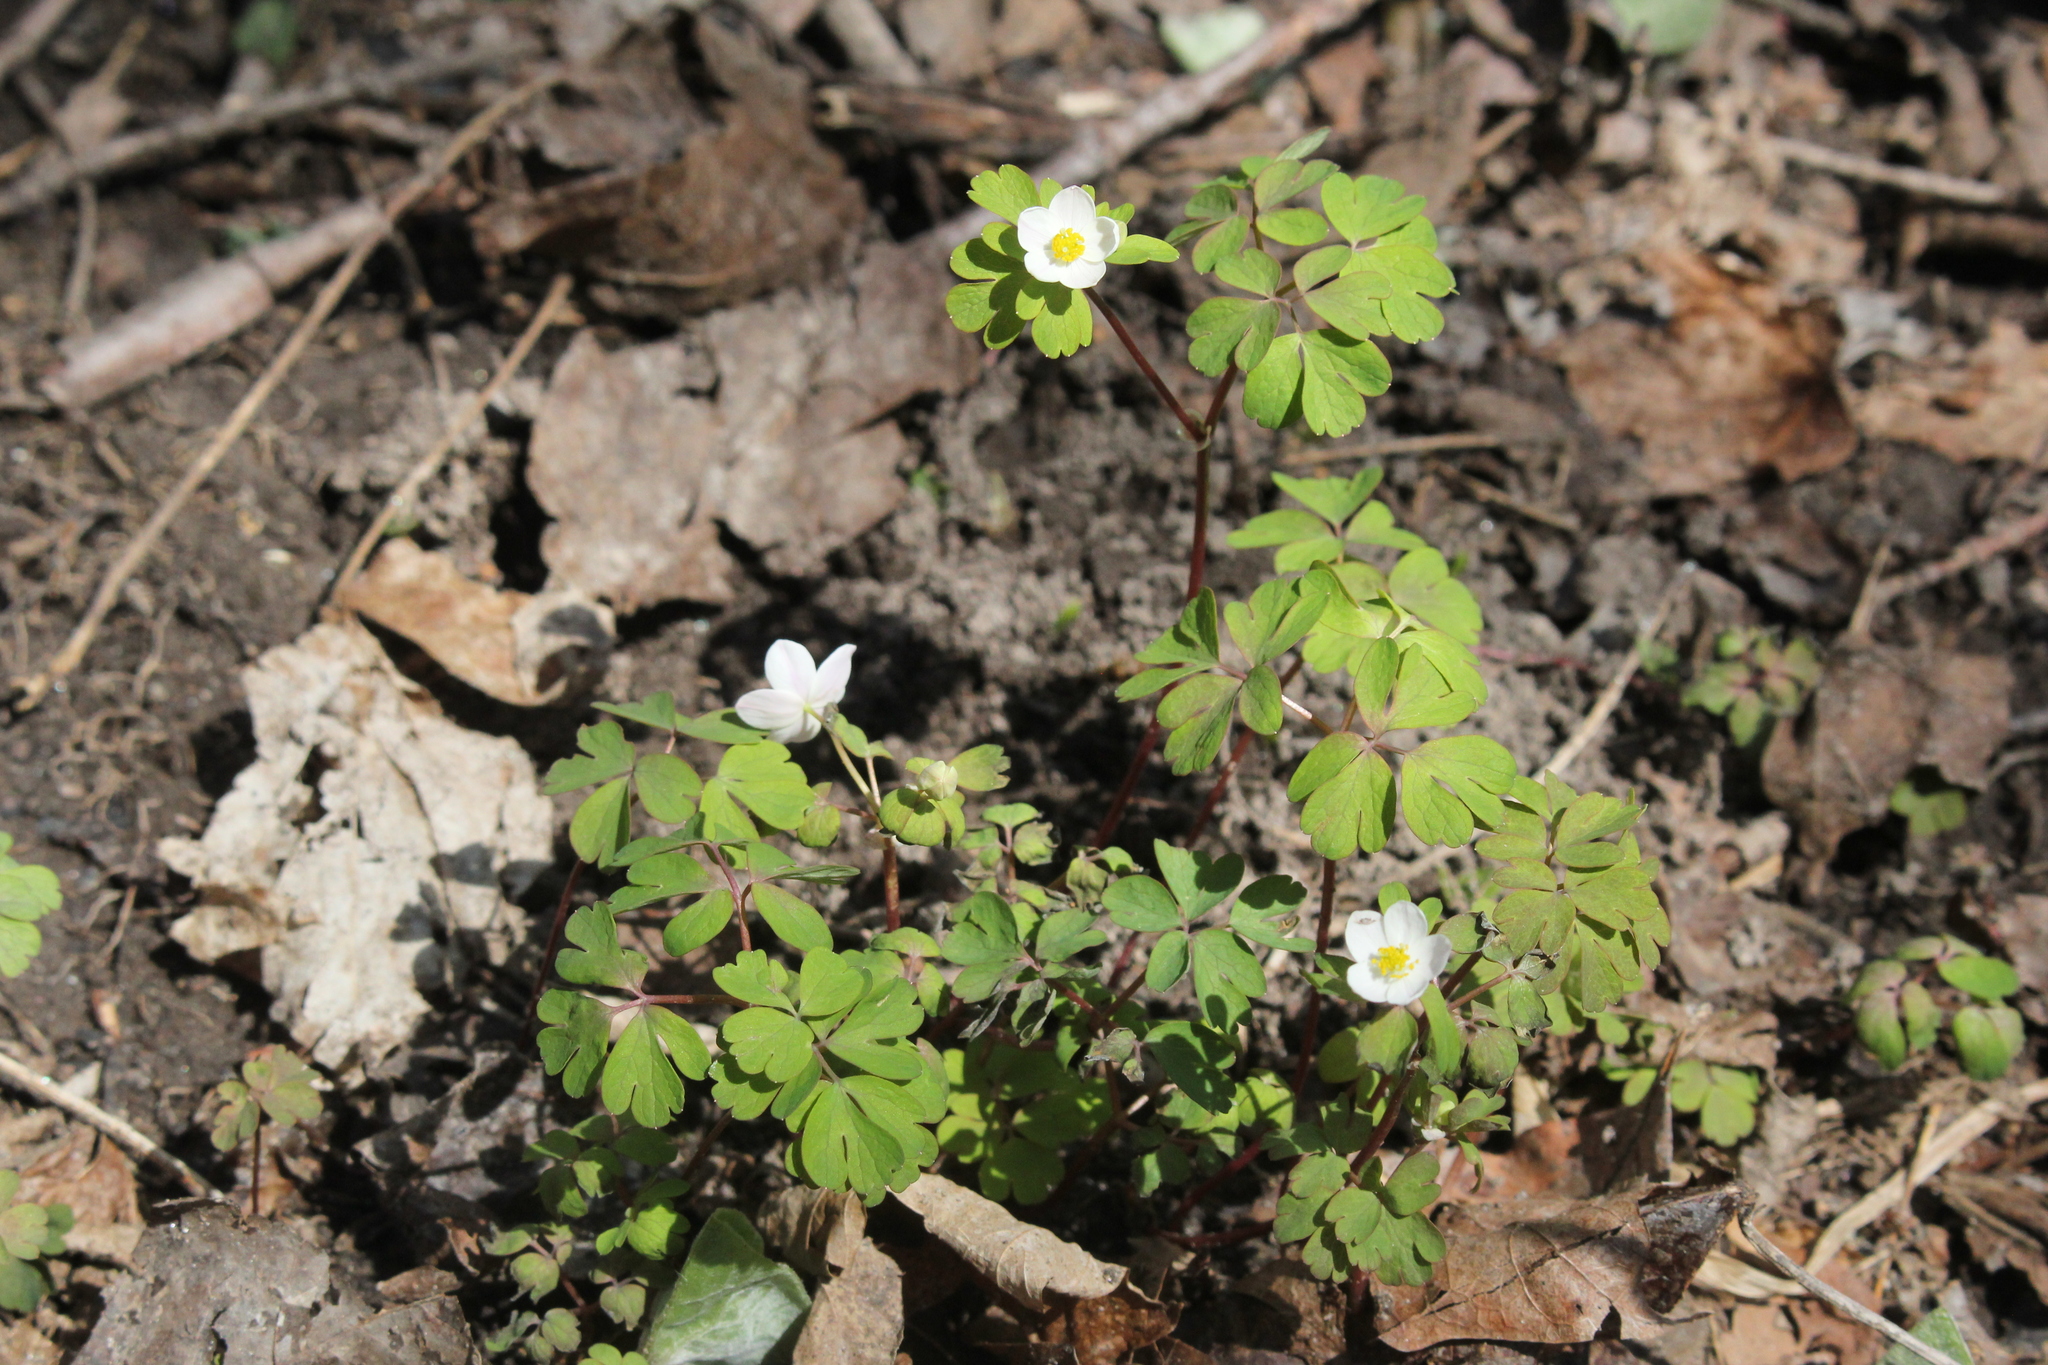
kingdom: Plantae
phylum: Tracheophyta
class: Magnoliopsida
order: Ranunculales
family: Ranunculaceae
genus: Enemion
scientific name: Enemion biternatum
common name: Eastern false rue-anemone
